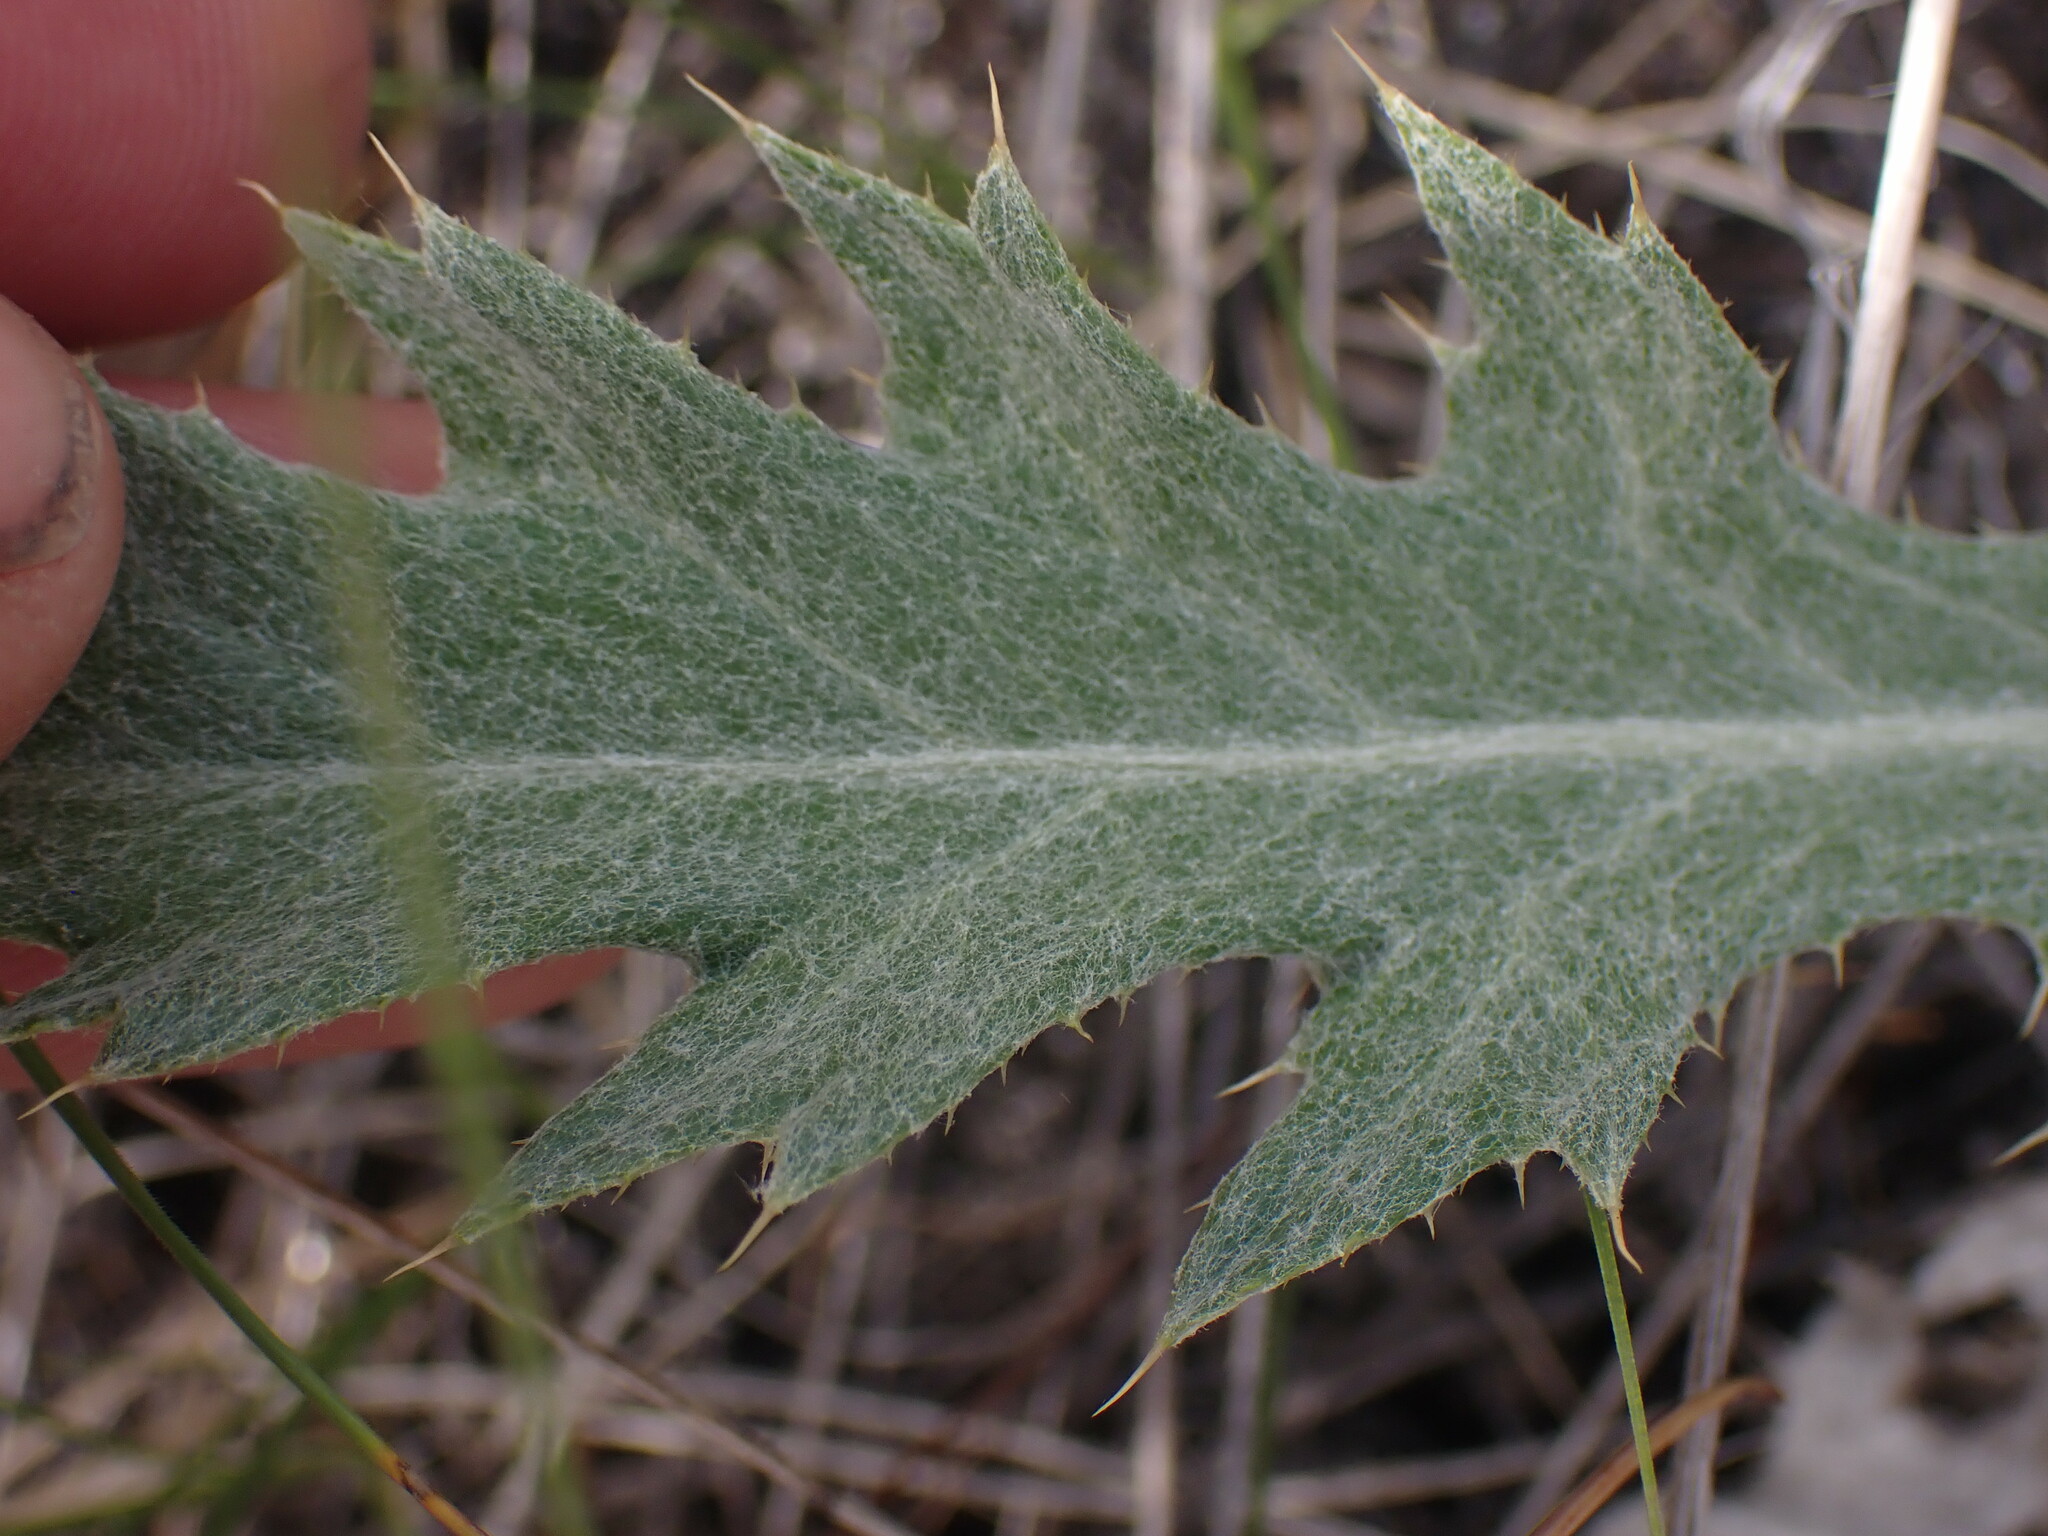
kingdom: Plantae
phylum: Tracheophyta
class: Magnoliopsida
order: Asterales
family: Asteraceae
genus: Cirsium
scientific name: Cirsium undulatum
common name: Pasture thistle
